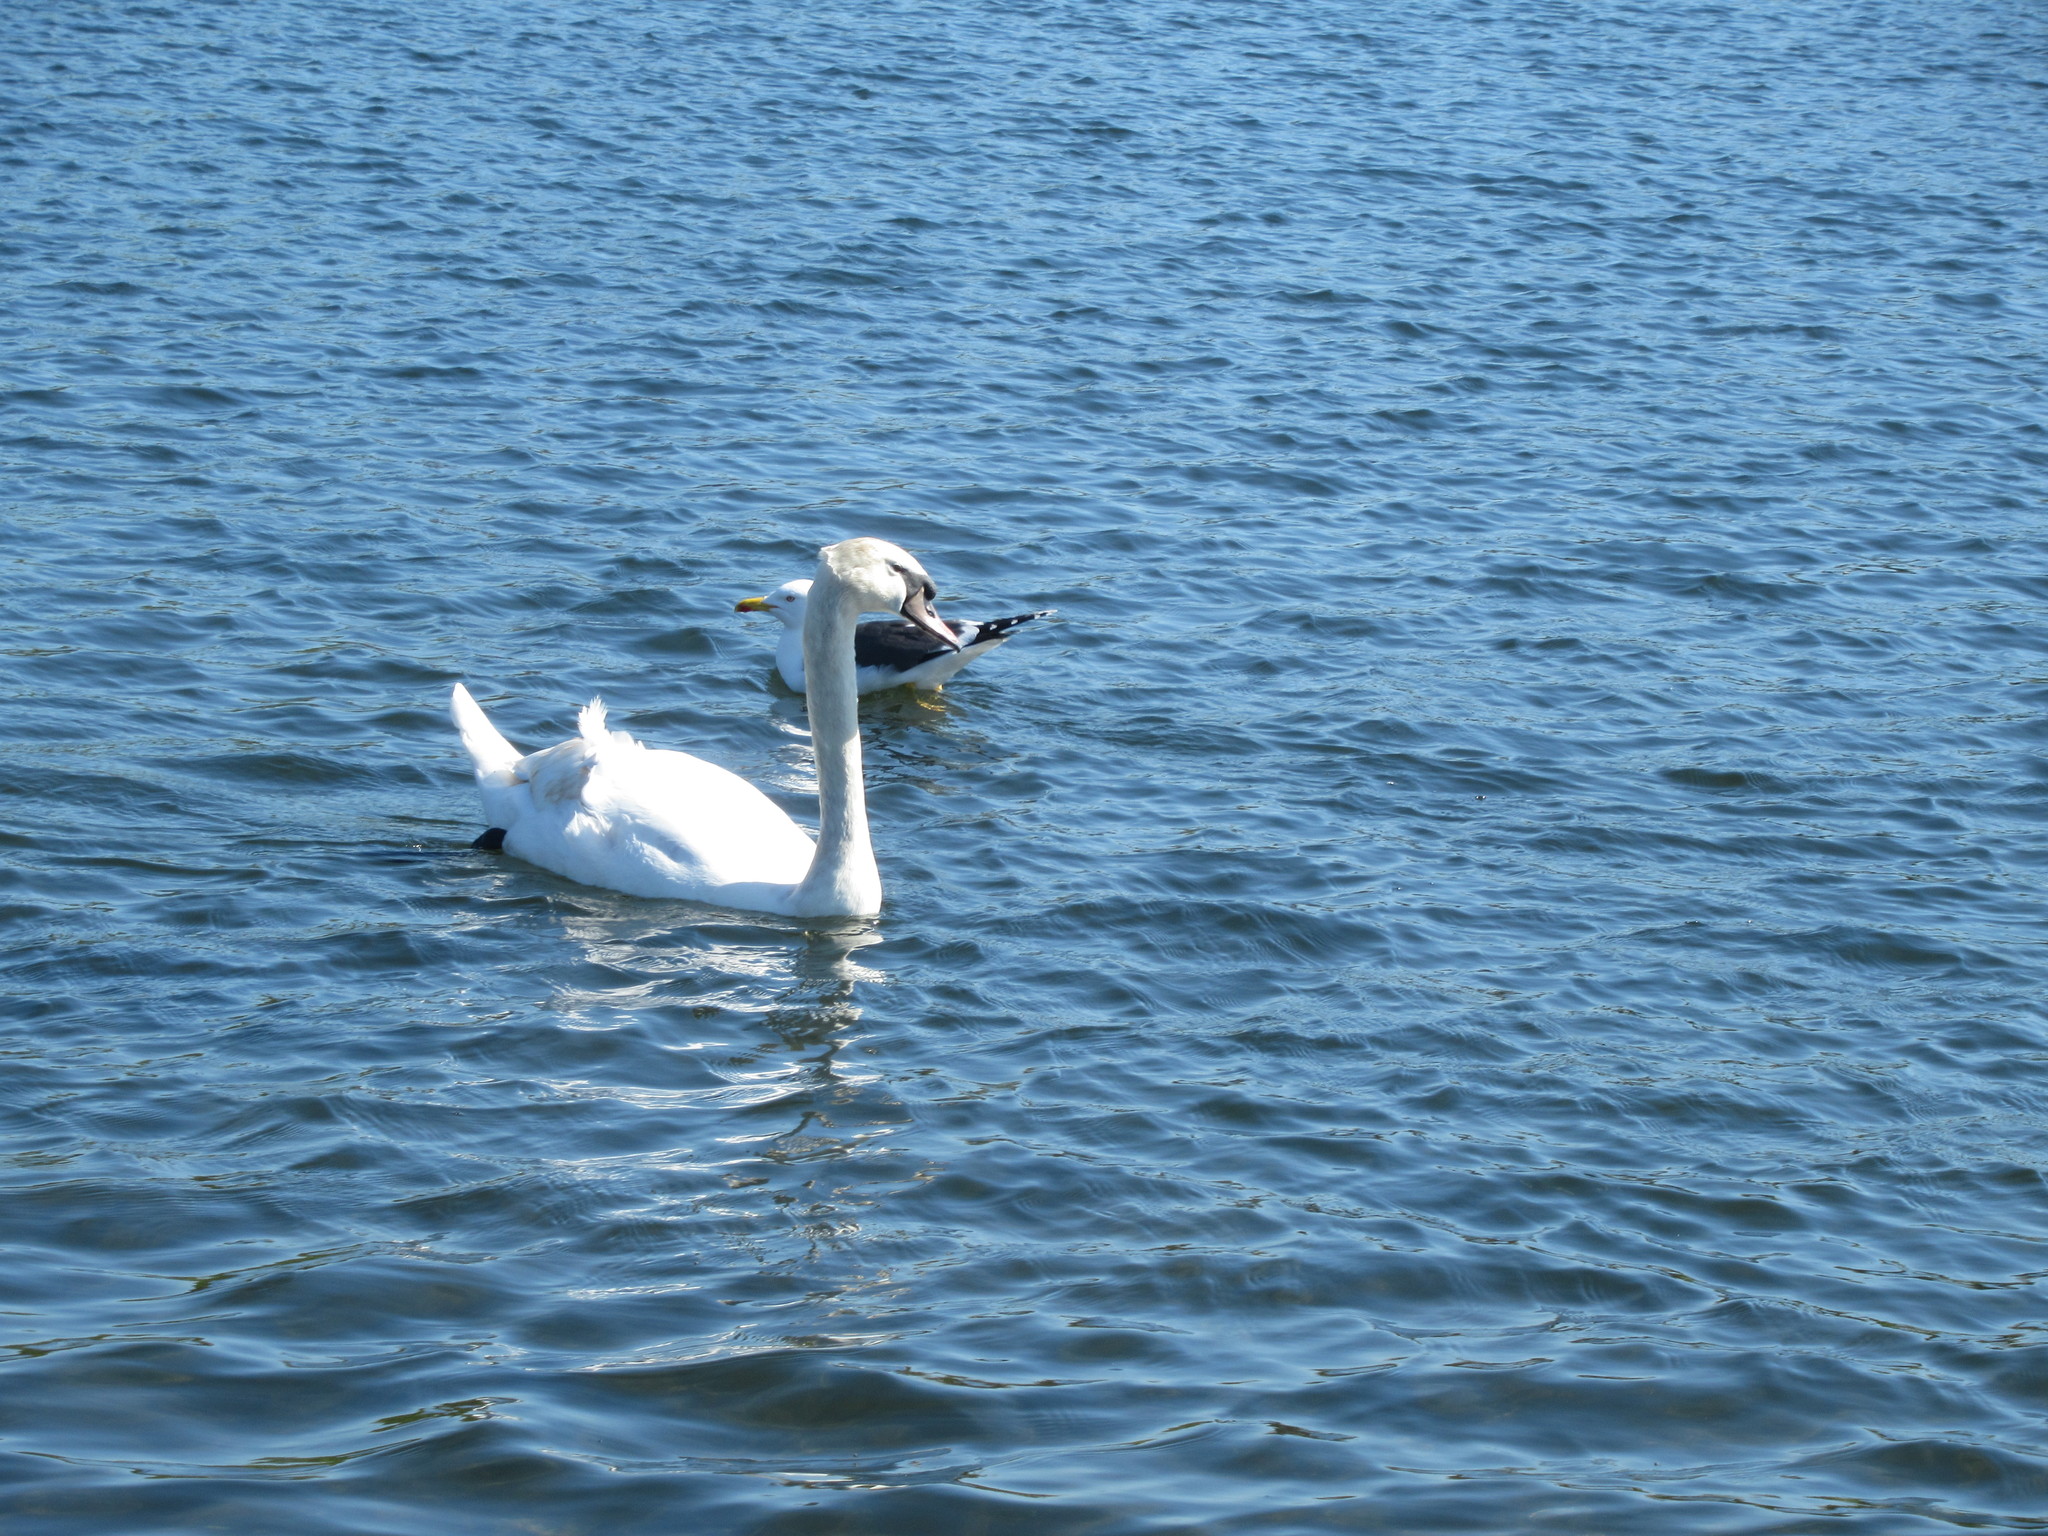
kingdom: Animalia
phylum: Chordata
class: Aves
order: Anseriformes
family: Anatidae
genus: Cygnus
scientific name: Cygnus olor
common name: Mute swan
